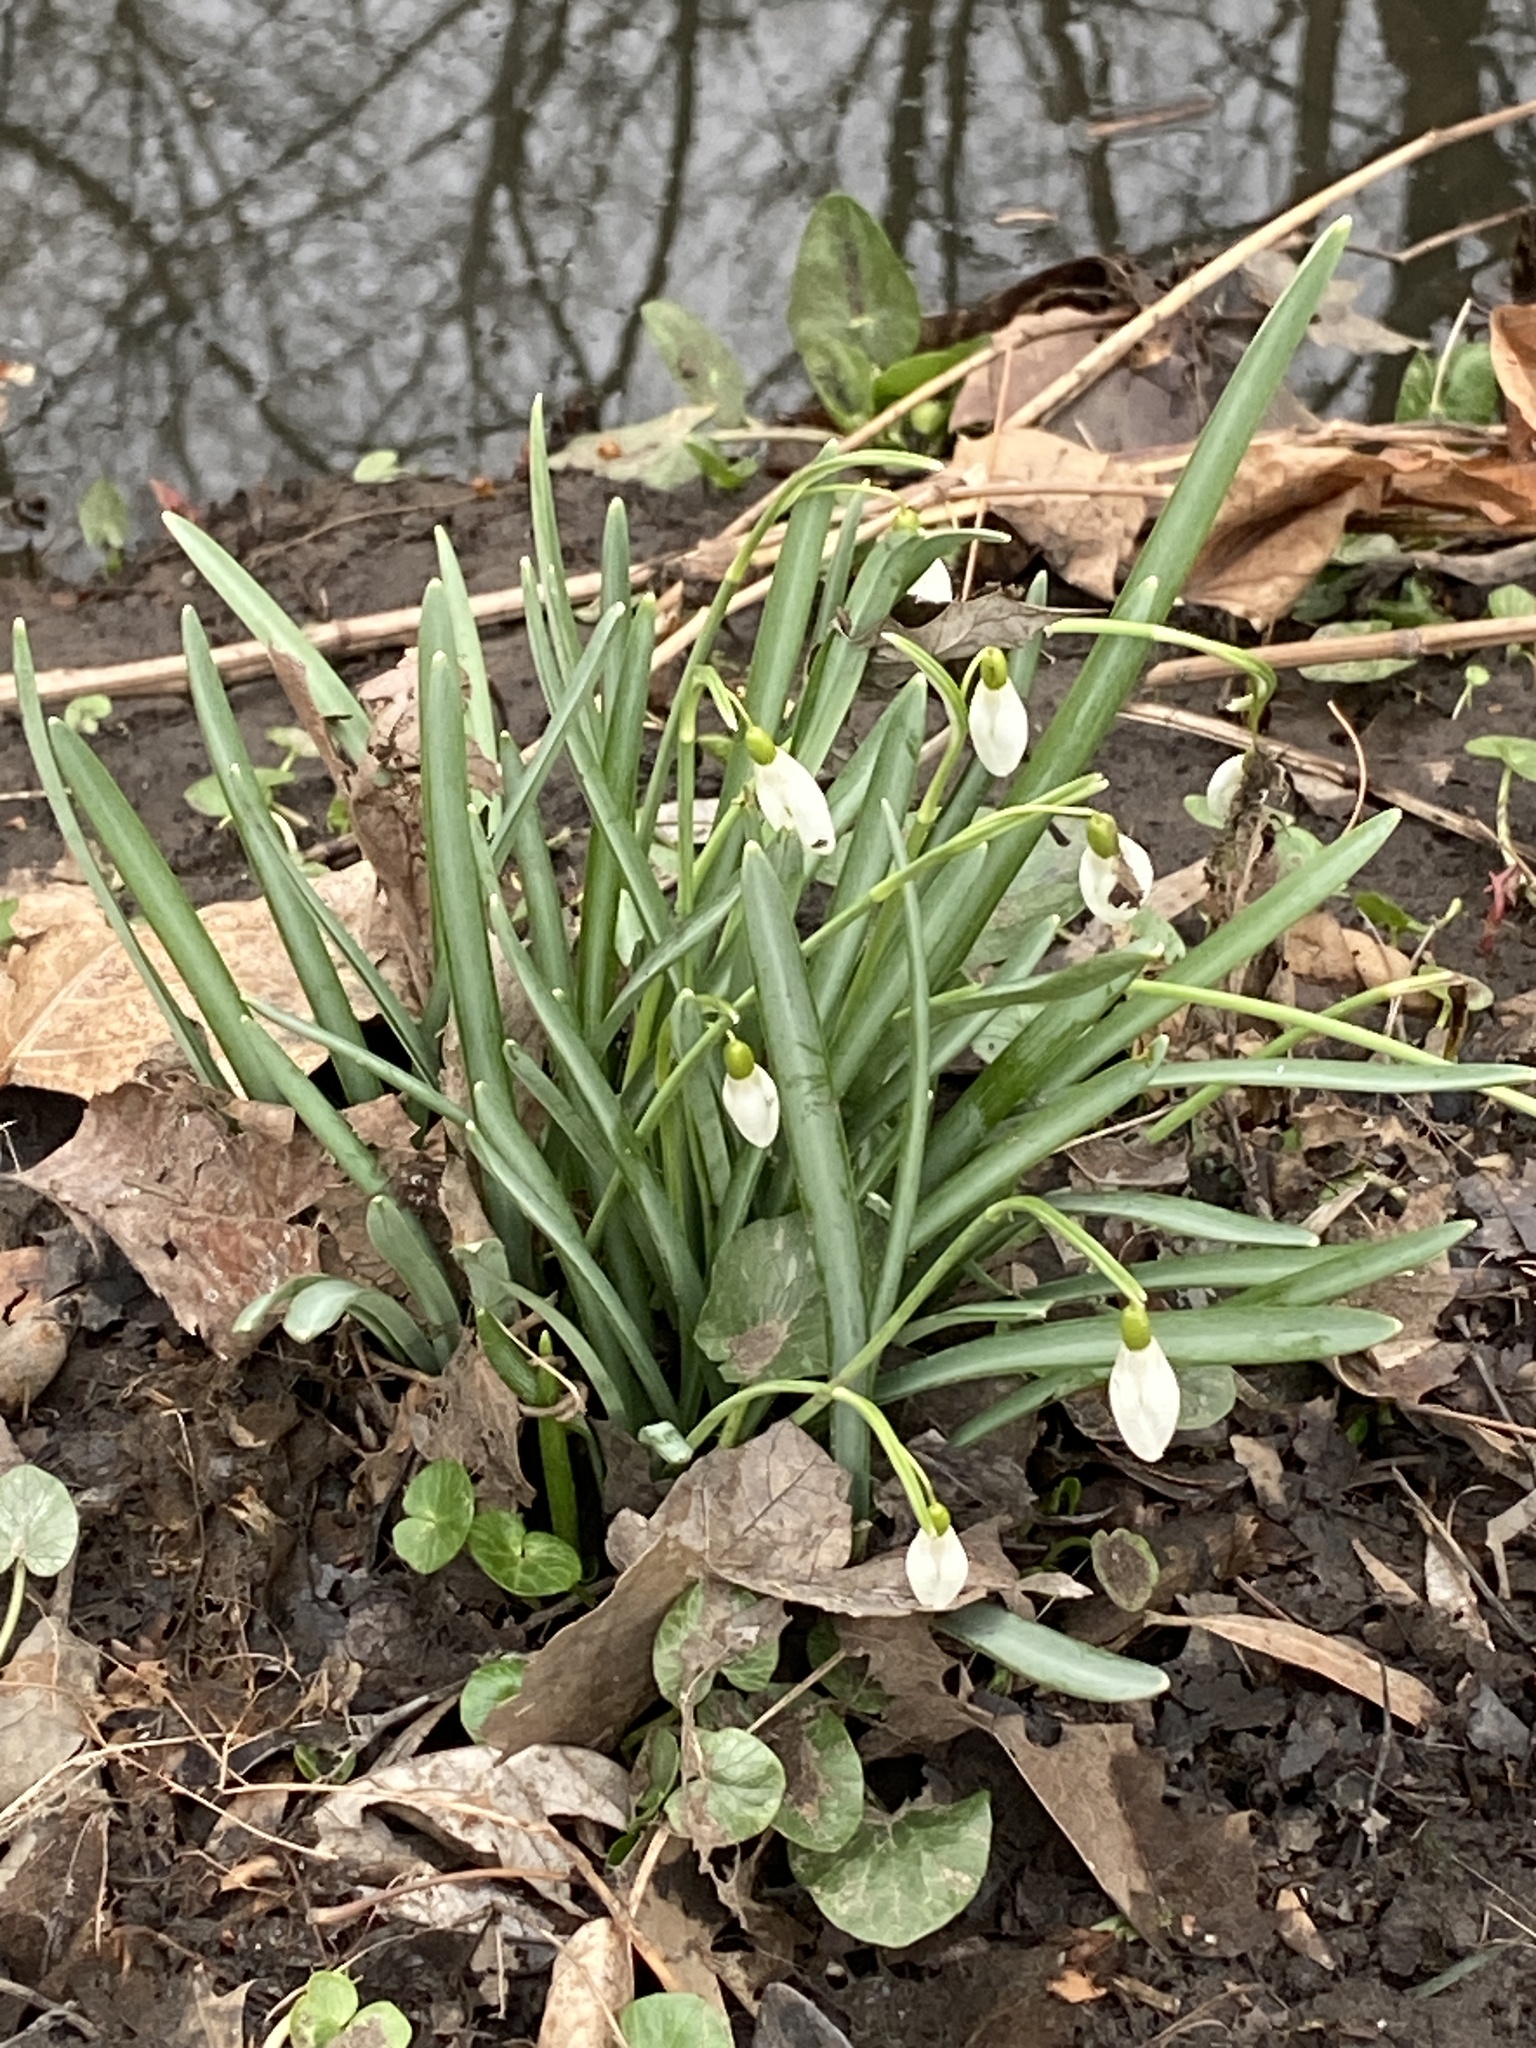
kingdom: Plantae
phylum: Tracheophyta
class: Liliopsida
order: Asparagales
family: Amaryllidaceae
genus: Galanthus
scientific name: Galanthus nivalis
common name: Snowdrop
